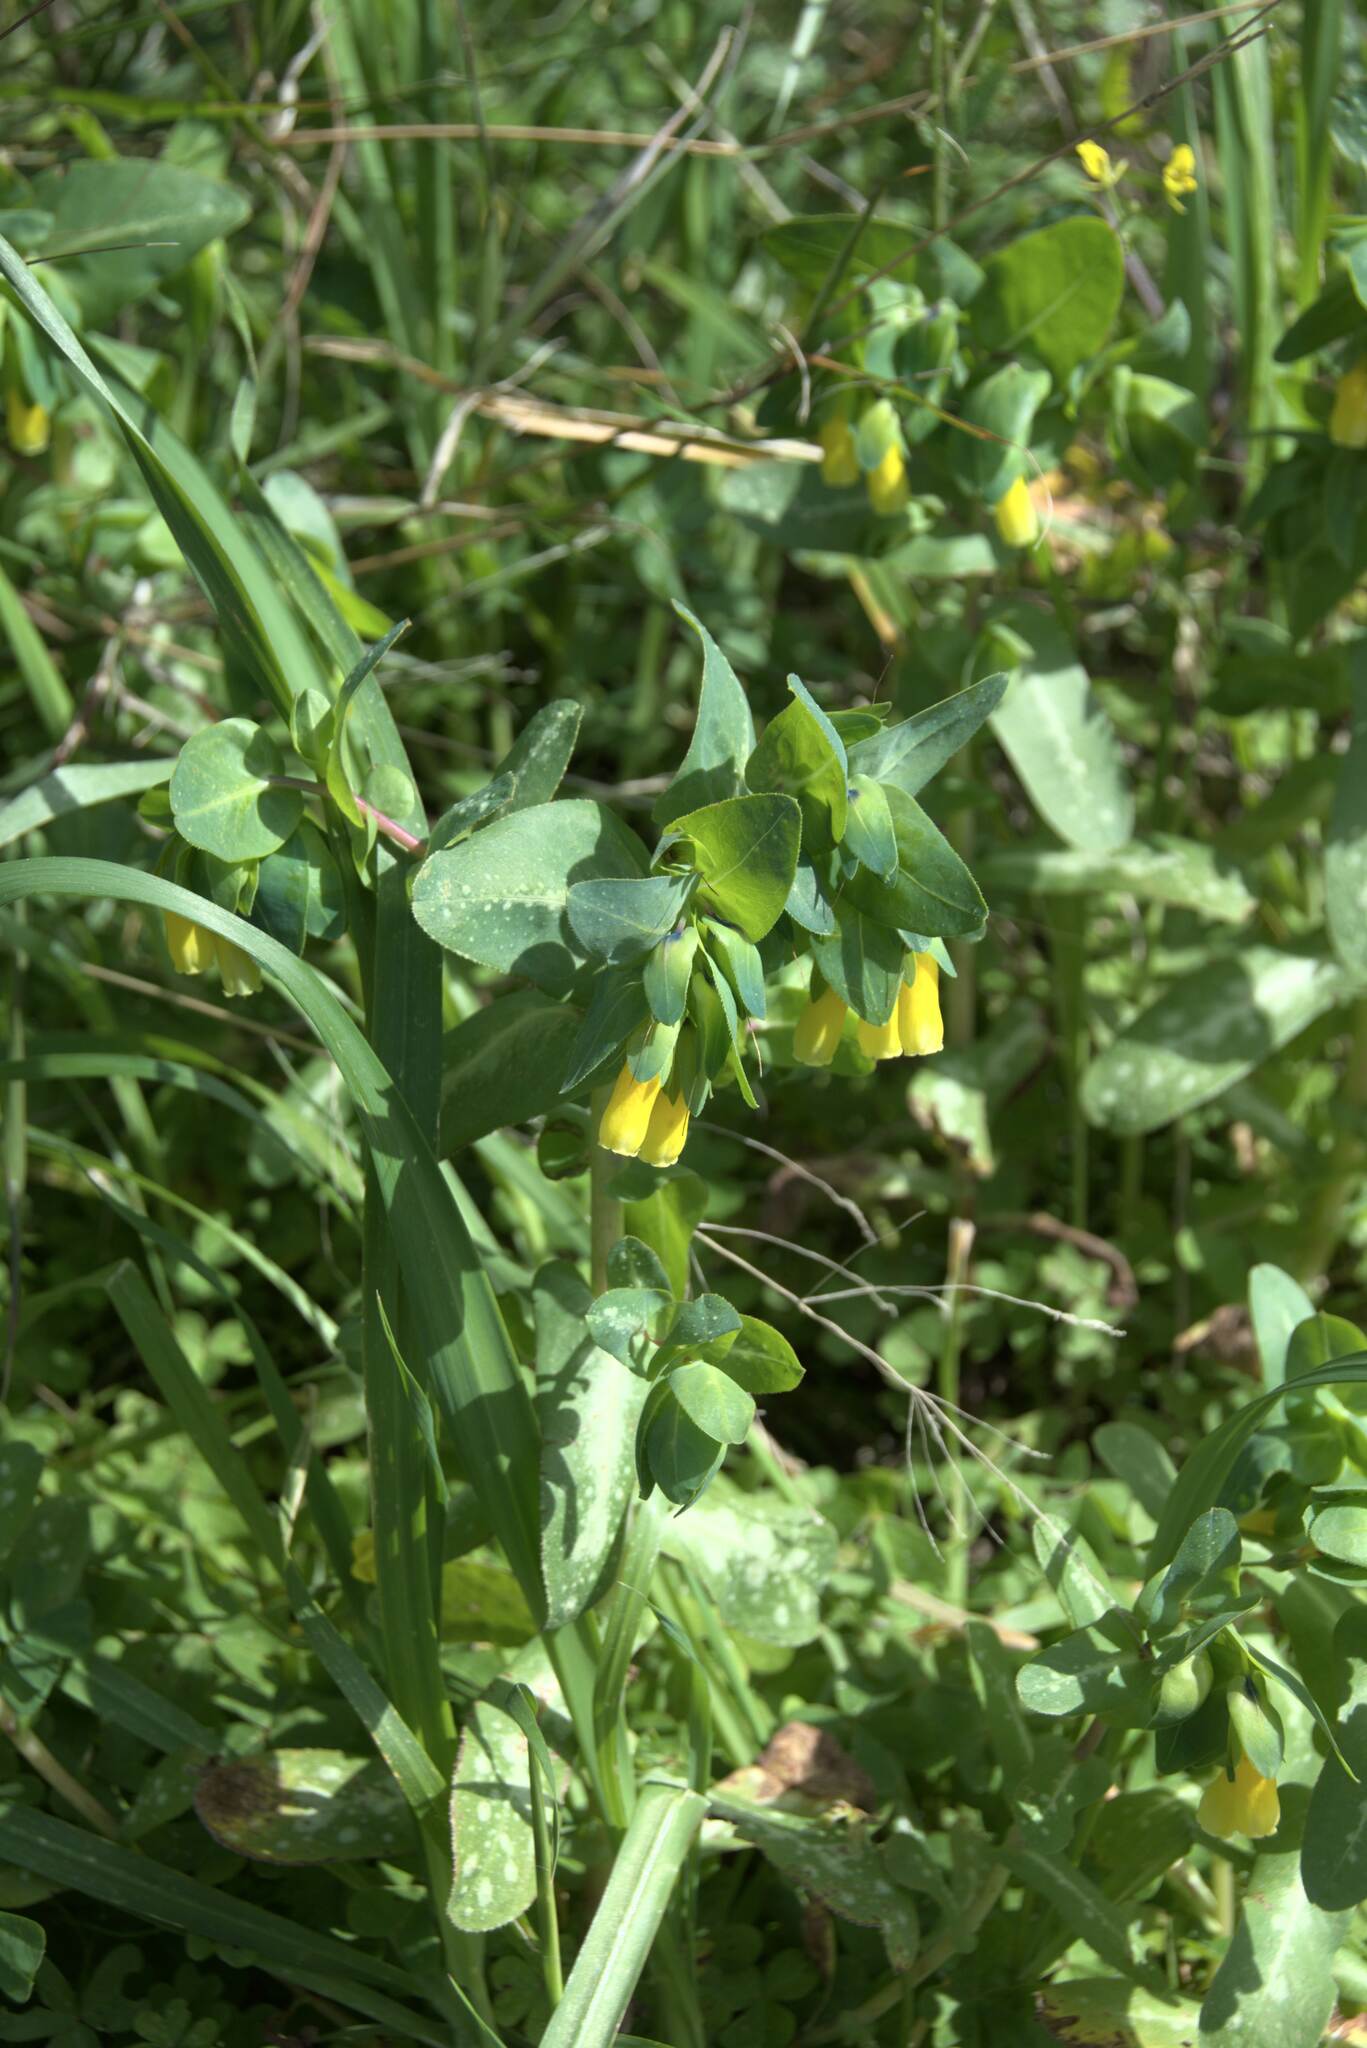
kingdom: Plantae
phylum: Tracheophyta
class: Magnoliopsida
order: Boraginales
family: Boraginaceae
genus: Cerinthe
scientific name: Cerinthe major
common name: Greater honeywort
